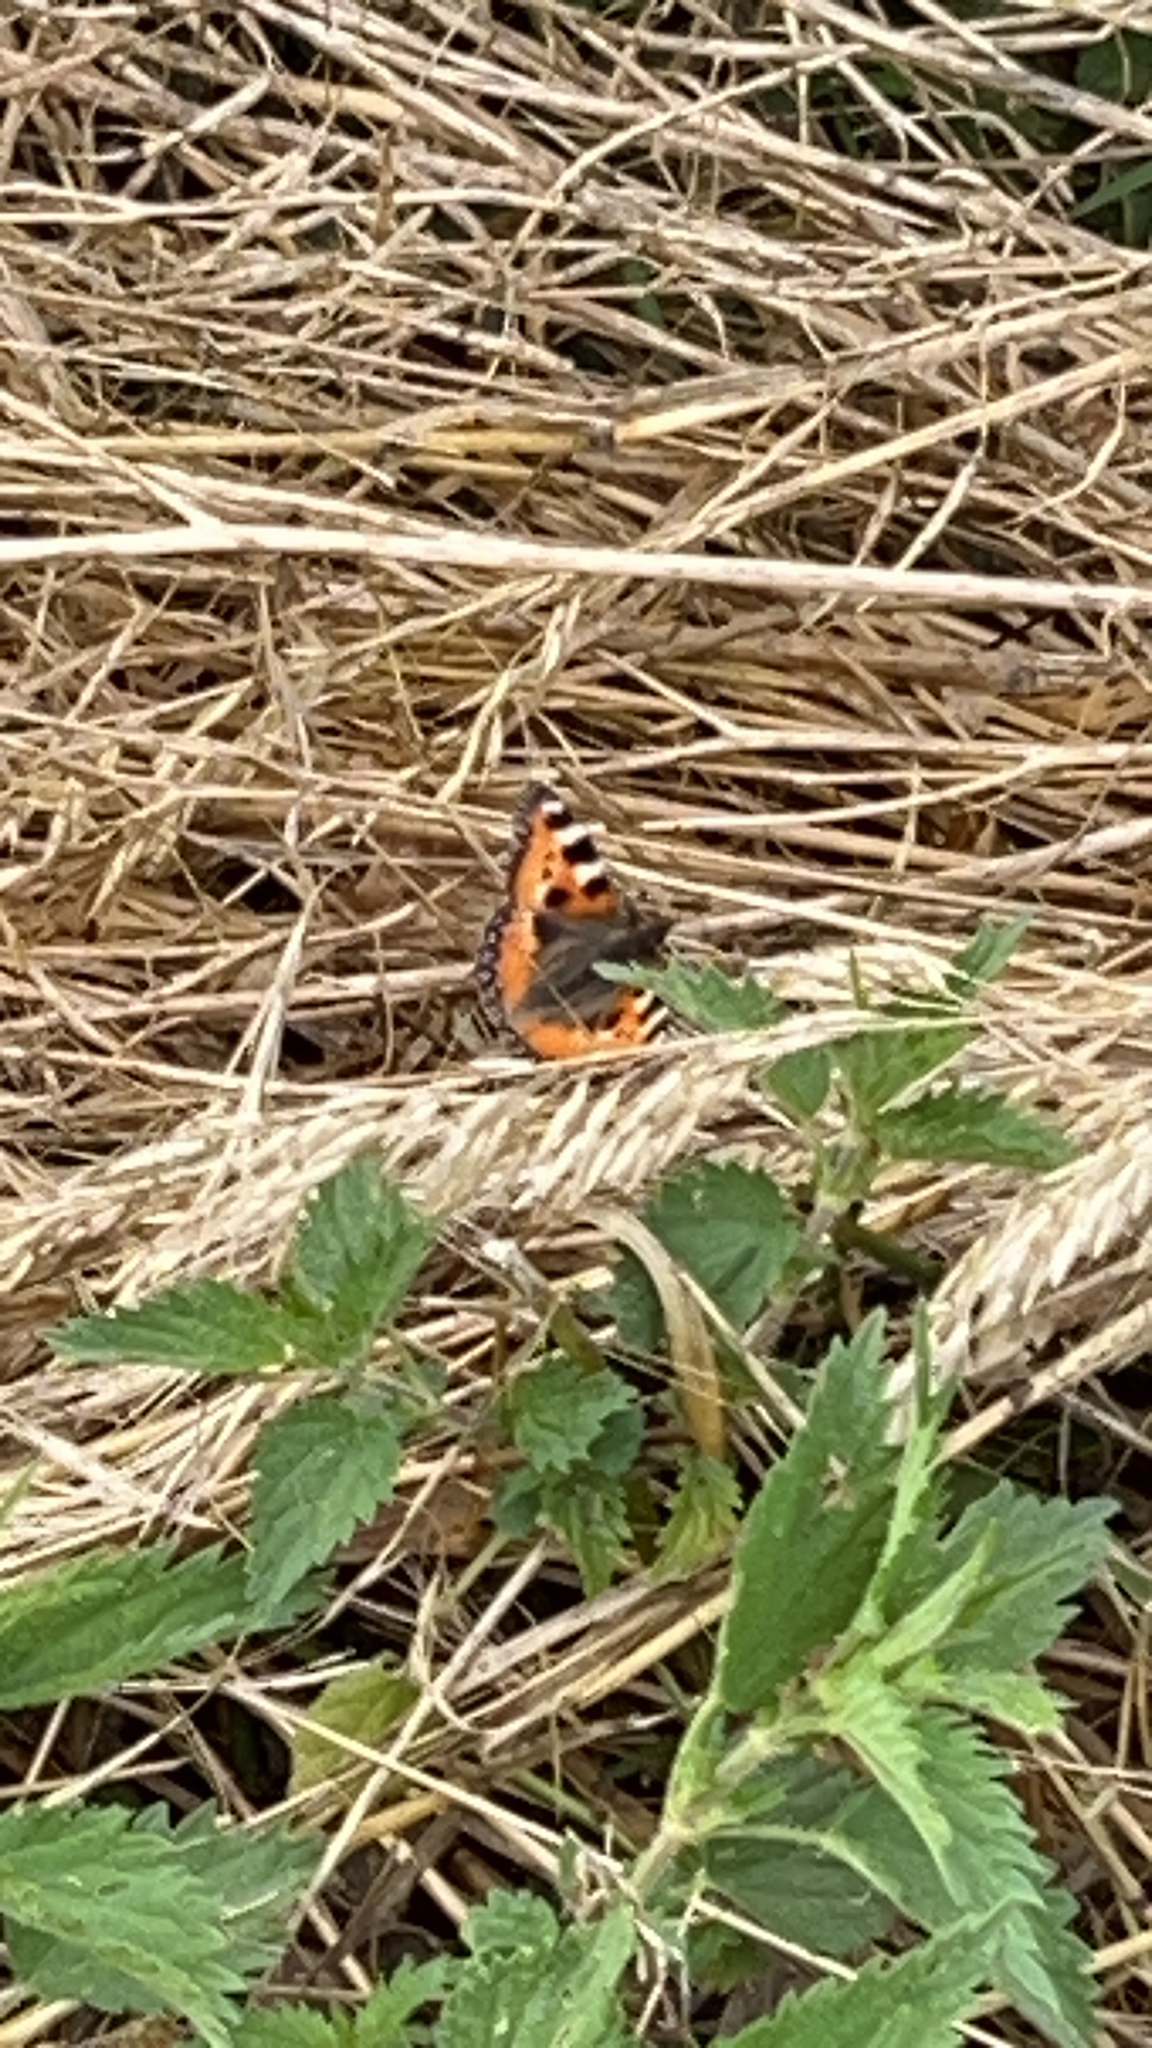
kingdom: Animalia
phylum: Arthropoda
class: Insecta
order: Lepidoptera
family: Nymphalidae
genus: Aglais
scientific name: Aglais urticae
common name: Small tortoiseshell
